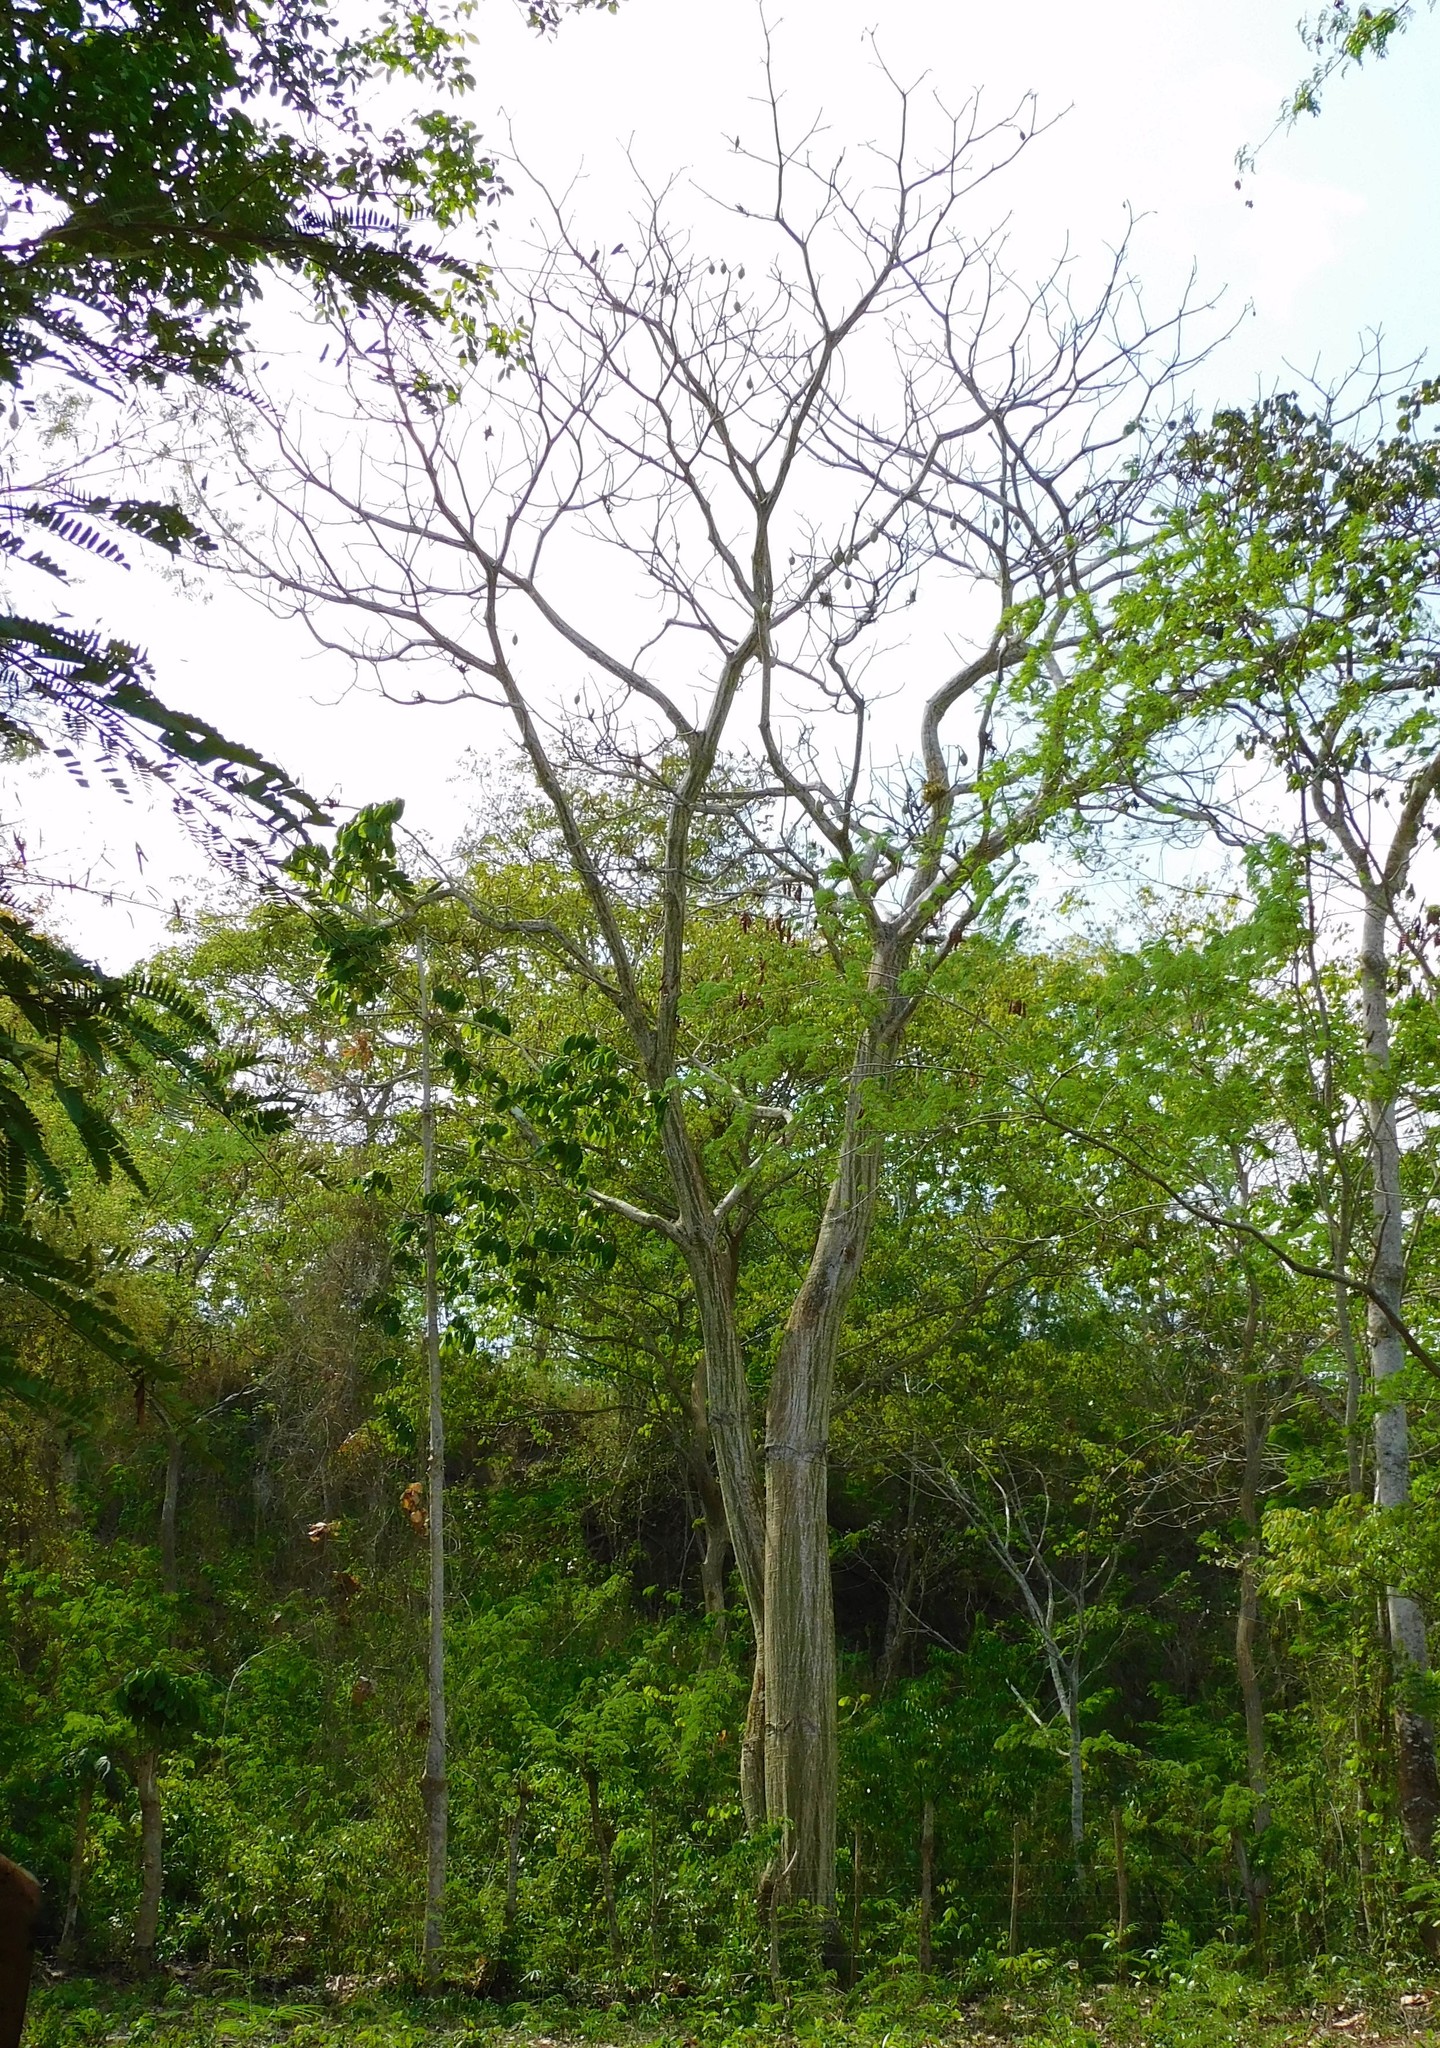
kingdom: Plantae
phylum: Tracheophyta
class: Magnoliopsida
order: Malvales
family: Malvaceae
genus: Pseudobombax
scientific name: Pseudobombax septenatum
